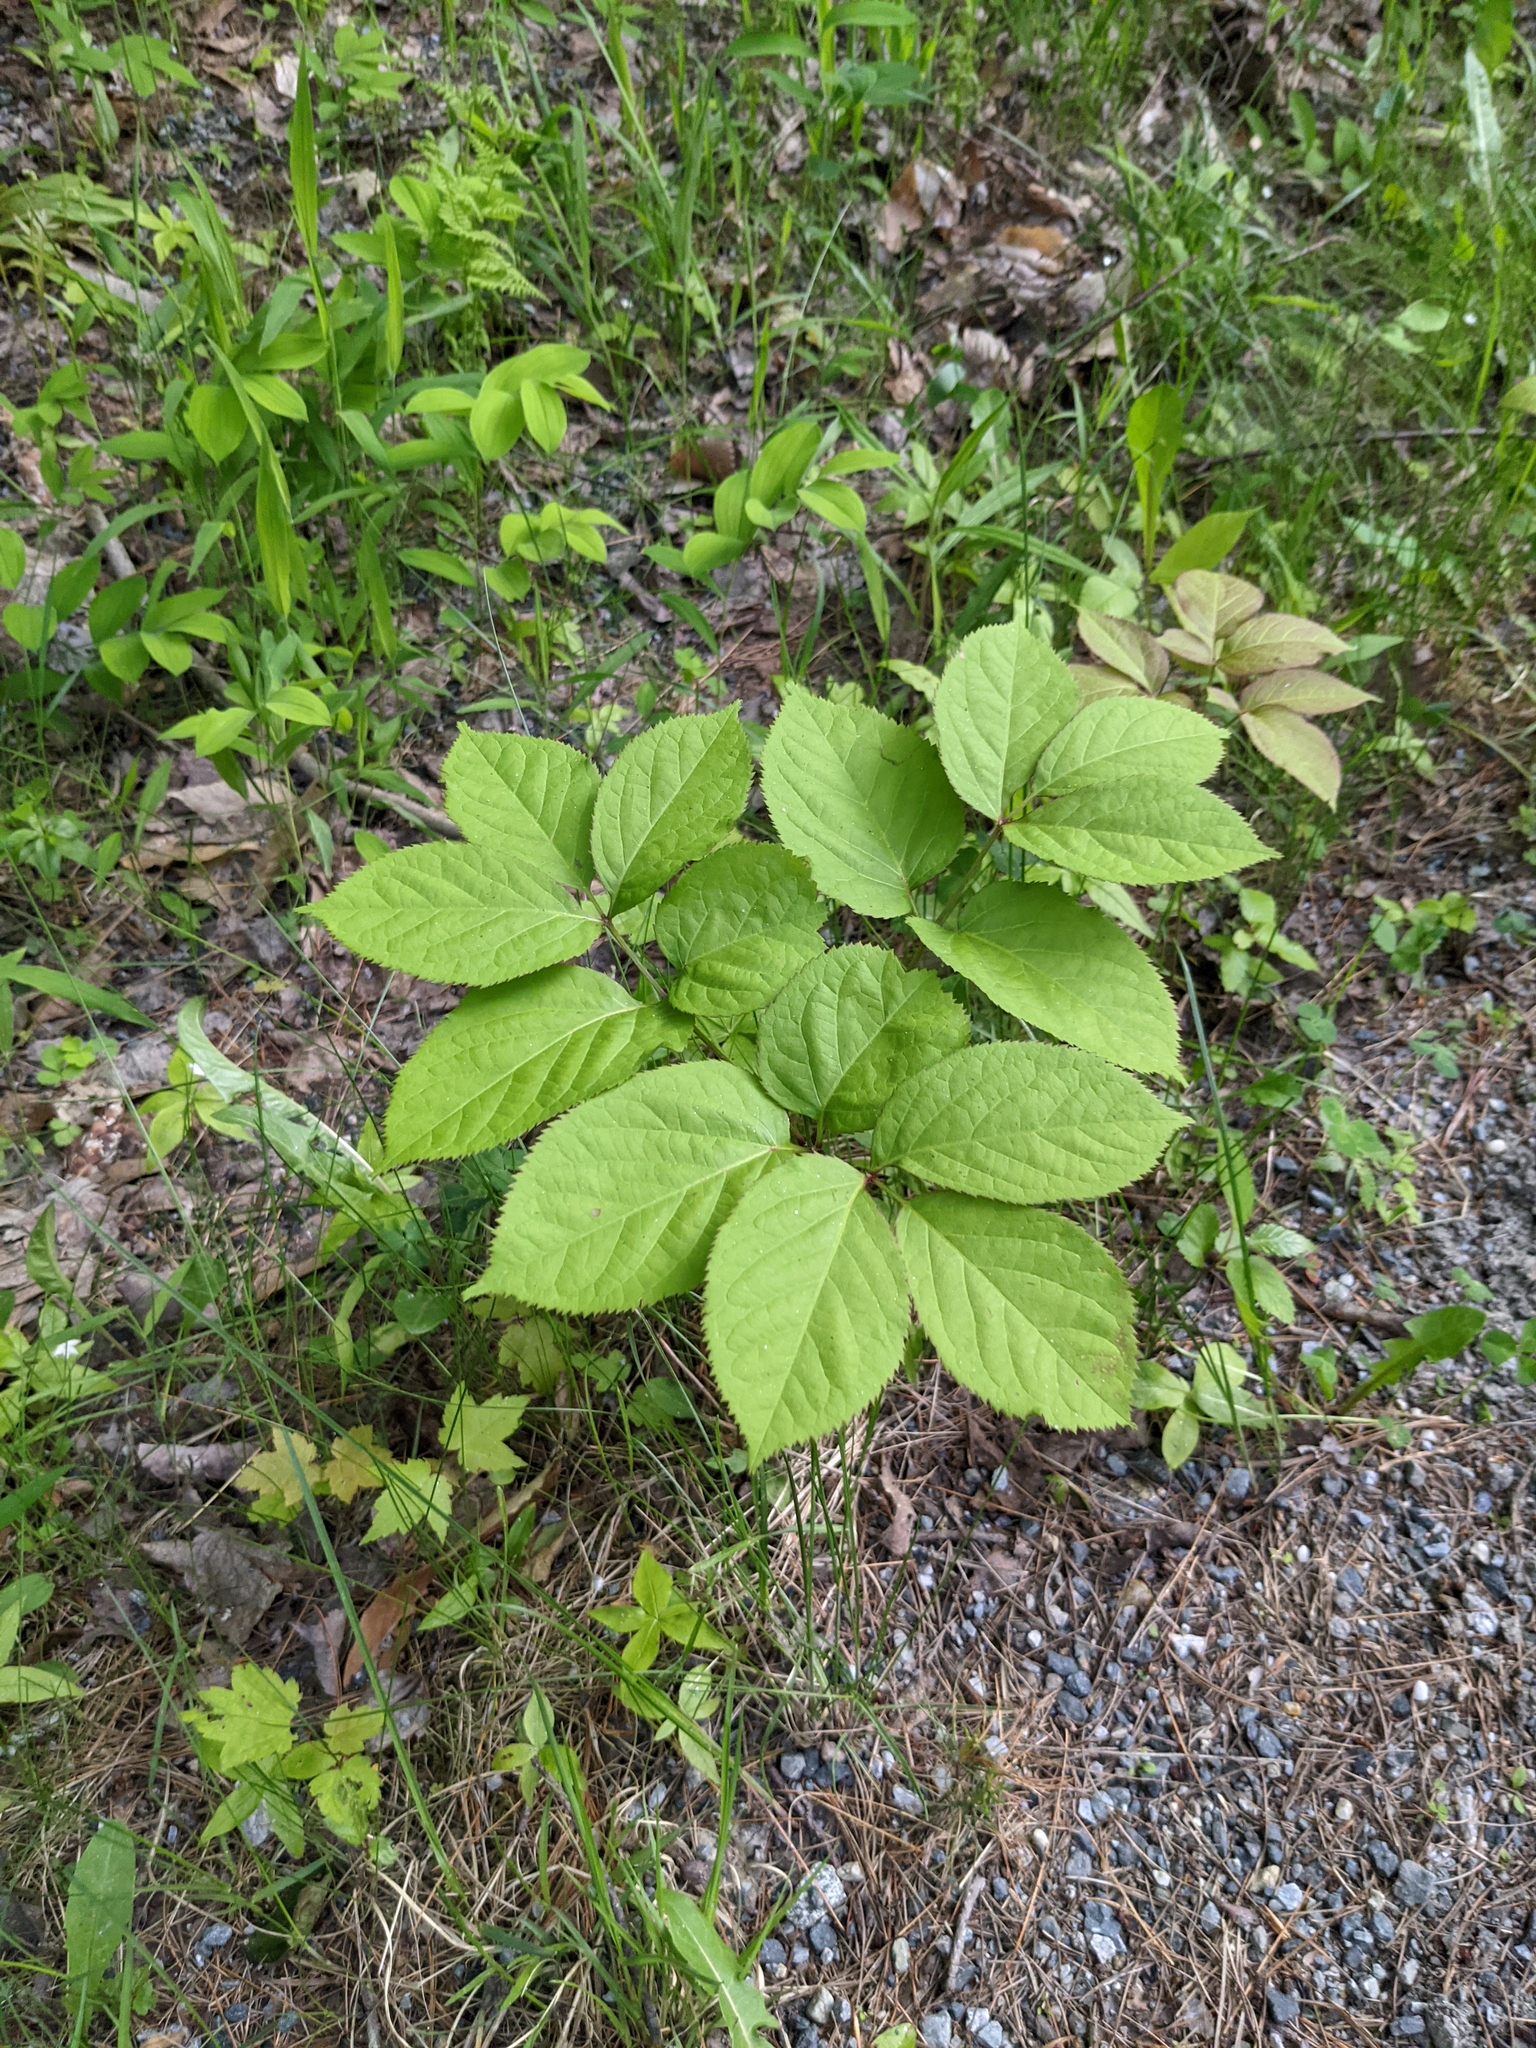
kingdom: Plantae
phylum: Tracheophyta
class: Magnoliopsida
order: Apiales
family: Araliaceae
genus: Aralia
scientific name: Aralia nudicaulis
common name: Wild sarsaparilla
